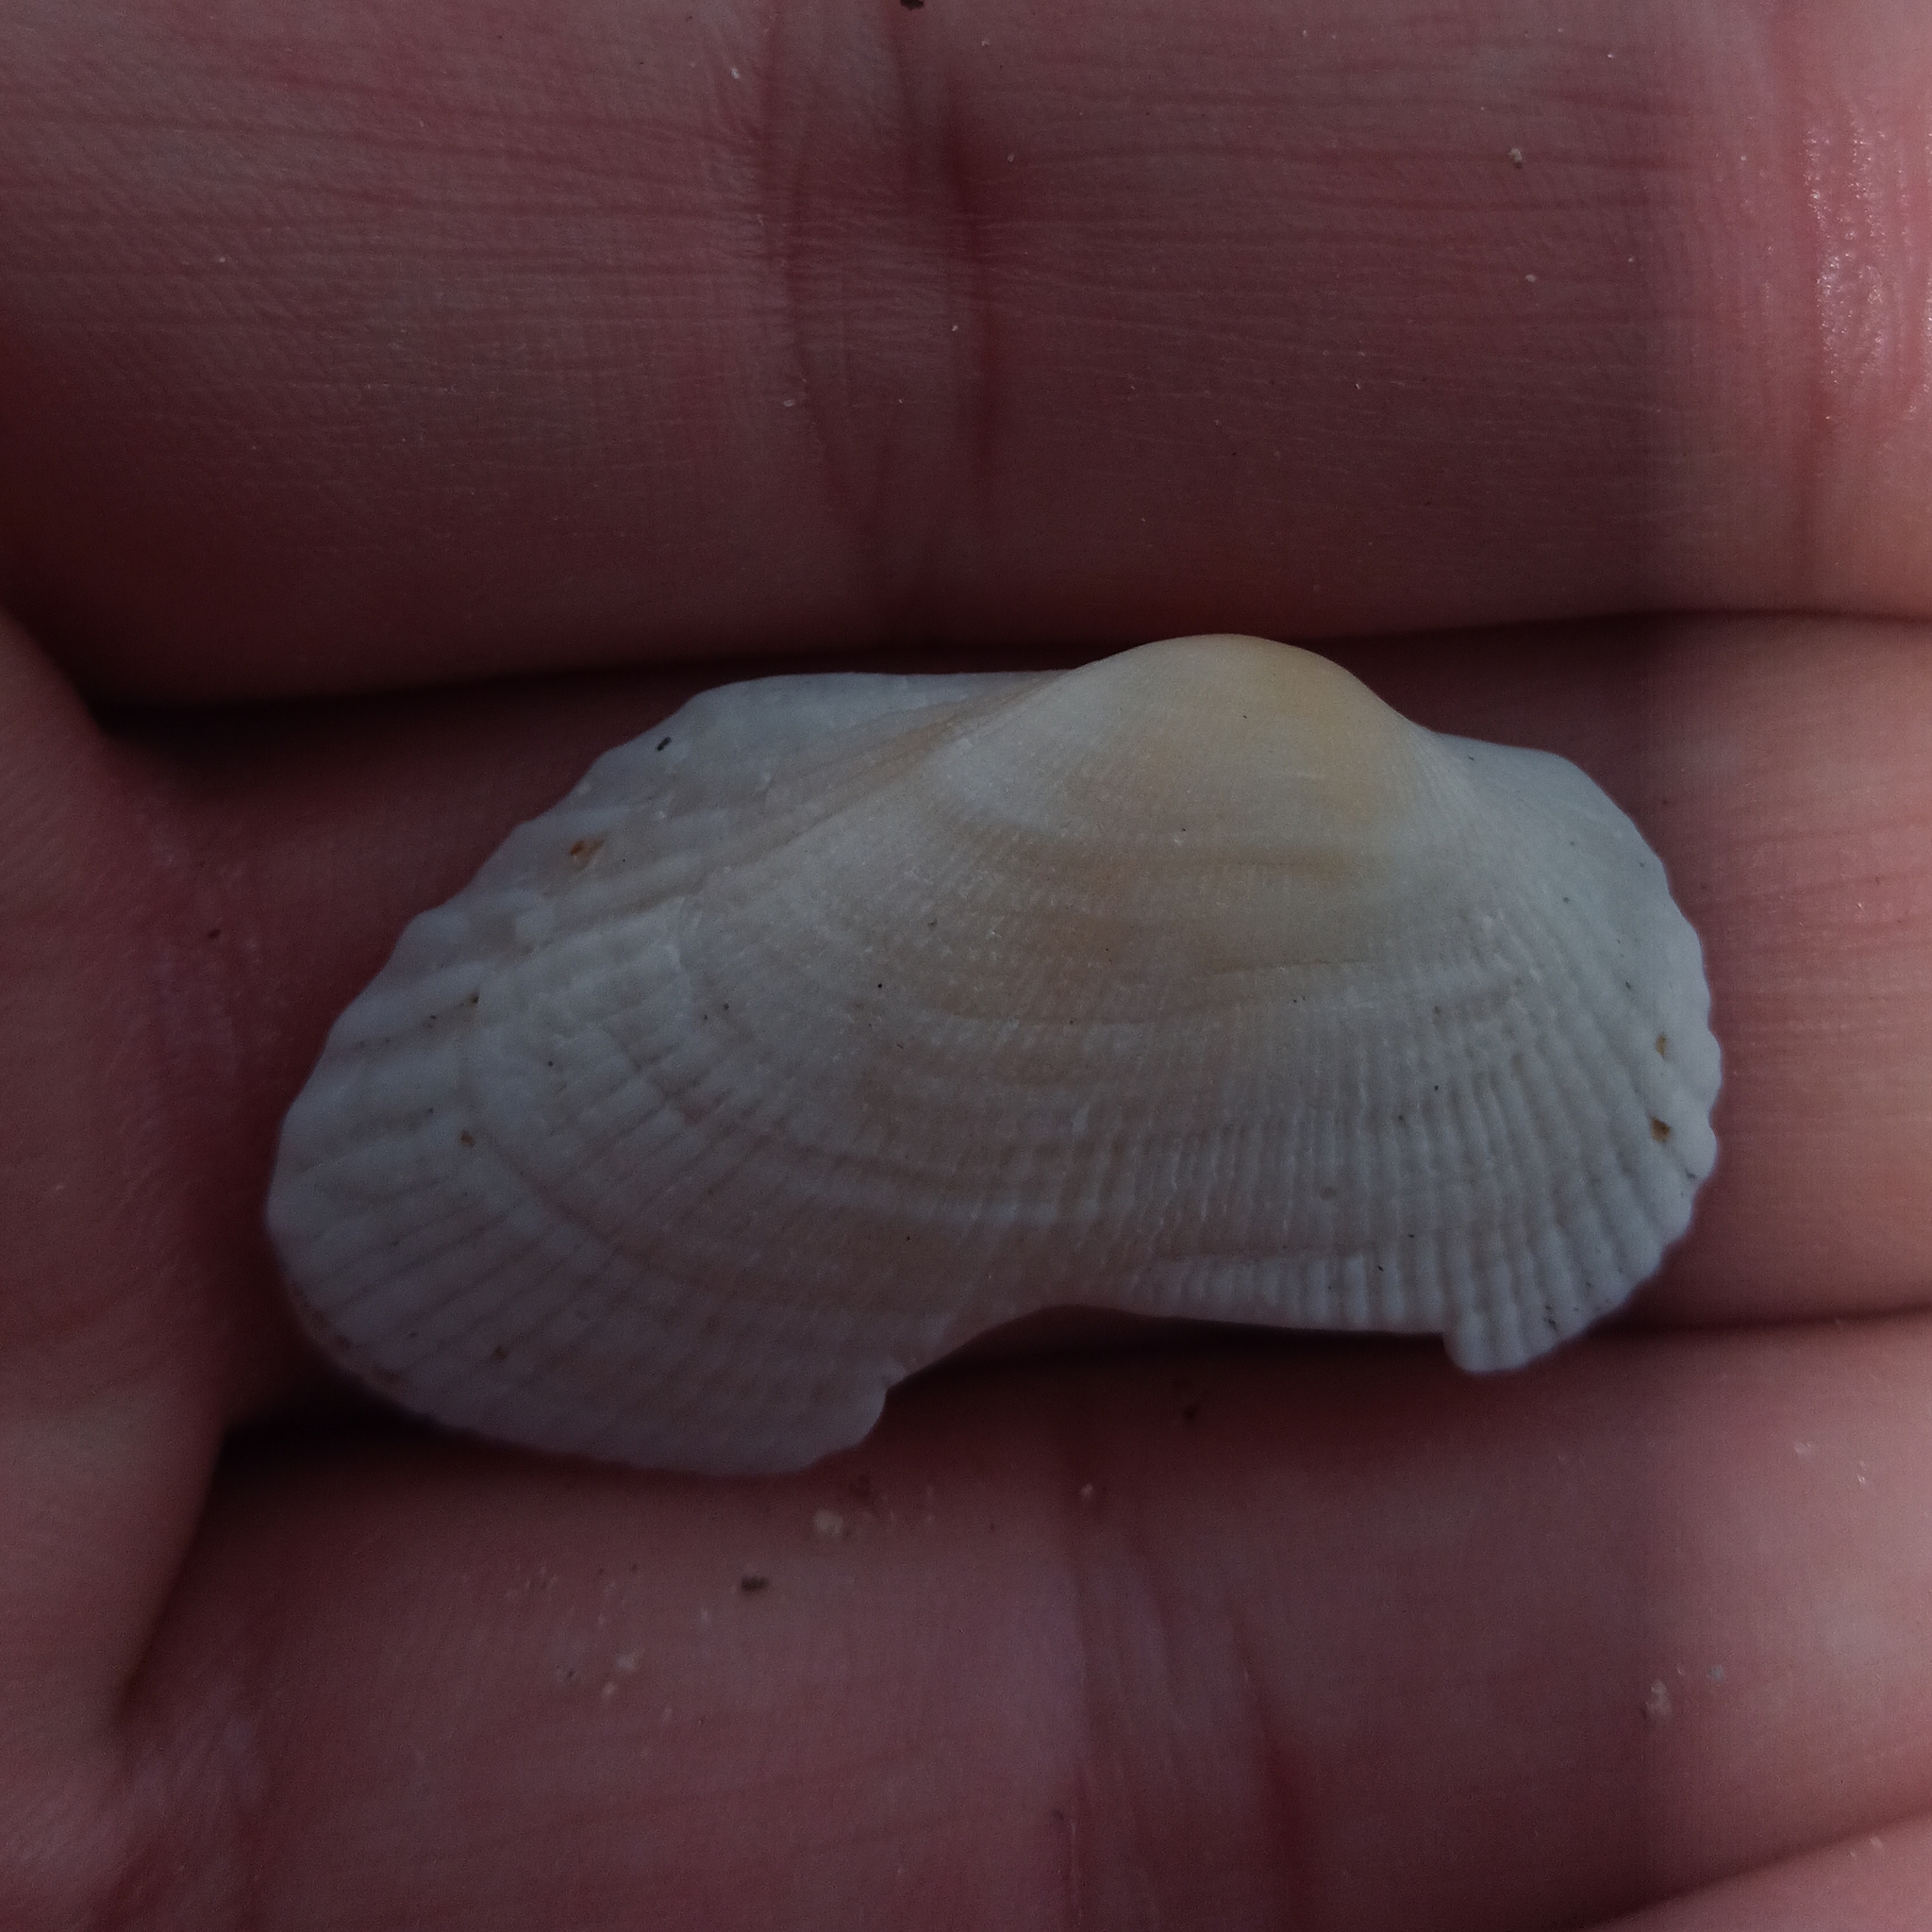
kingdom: Animalia
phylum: Mollusca
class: Bivalvia
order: Arcida
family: Arcidae
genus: Barbatia
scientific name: Barbatia candida
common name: White-beard ark
